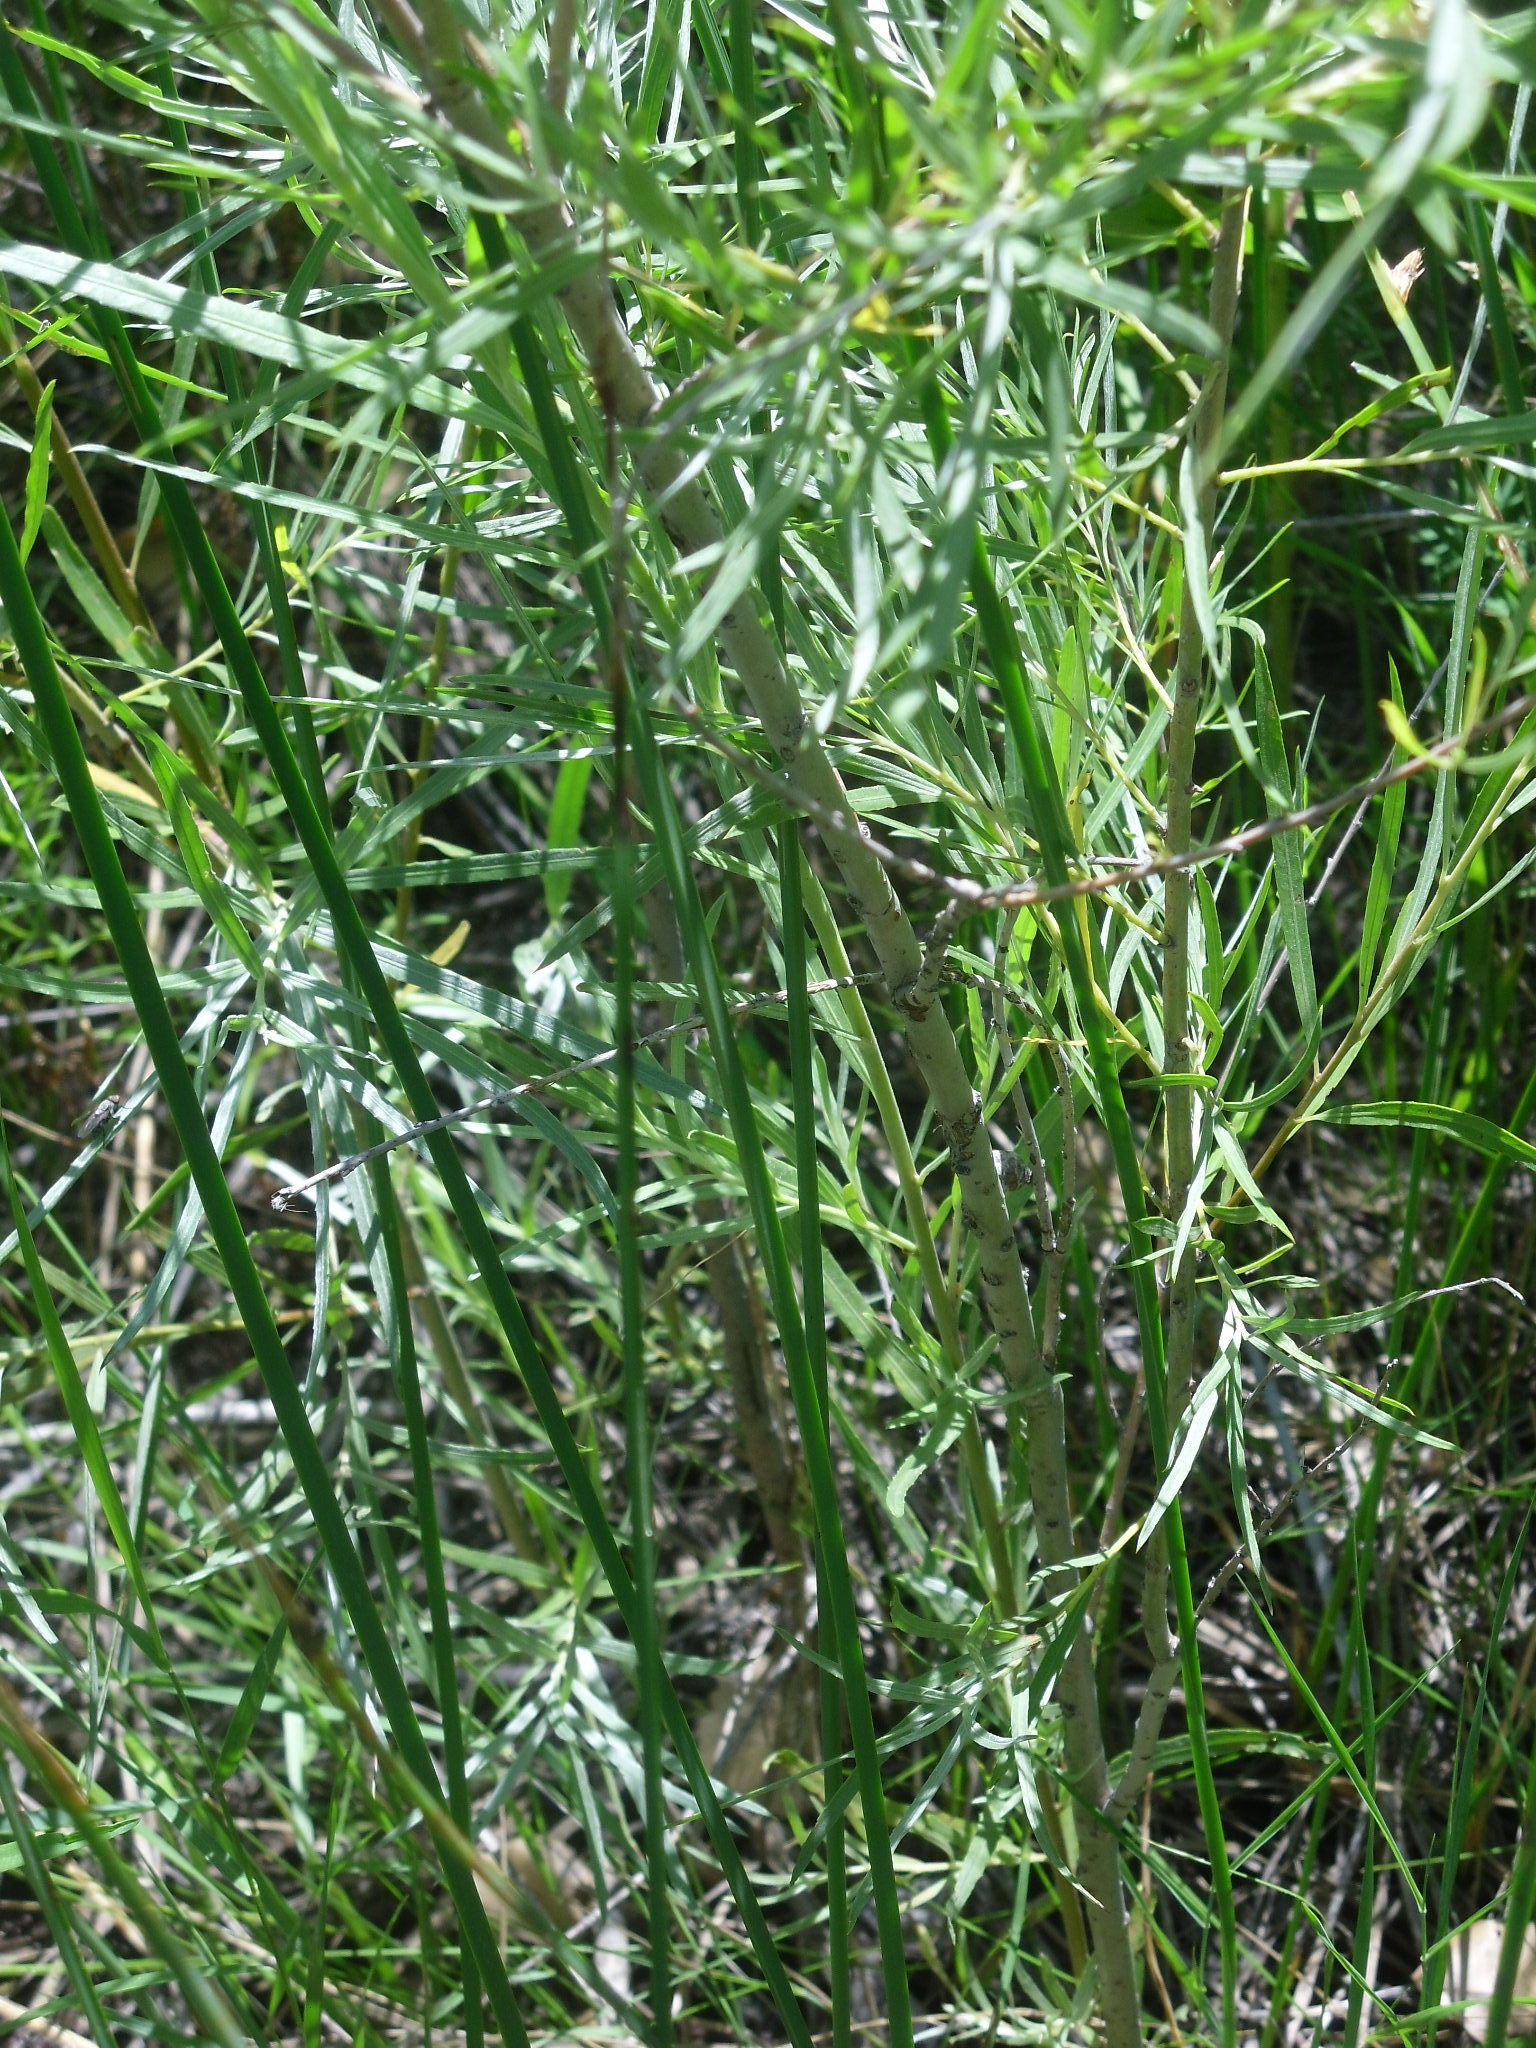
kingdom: Plantae
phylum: Tracheophyta
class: Magnoliopsida
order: Malpighiales
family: Salicaceae
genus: Salix
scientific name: Salix exigua
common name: Coyote willow
